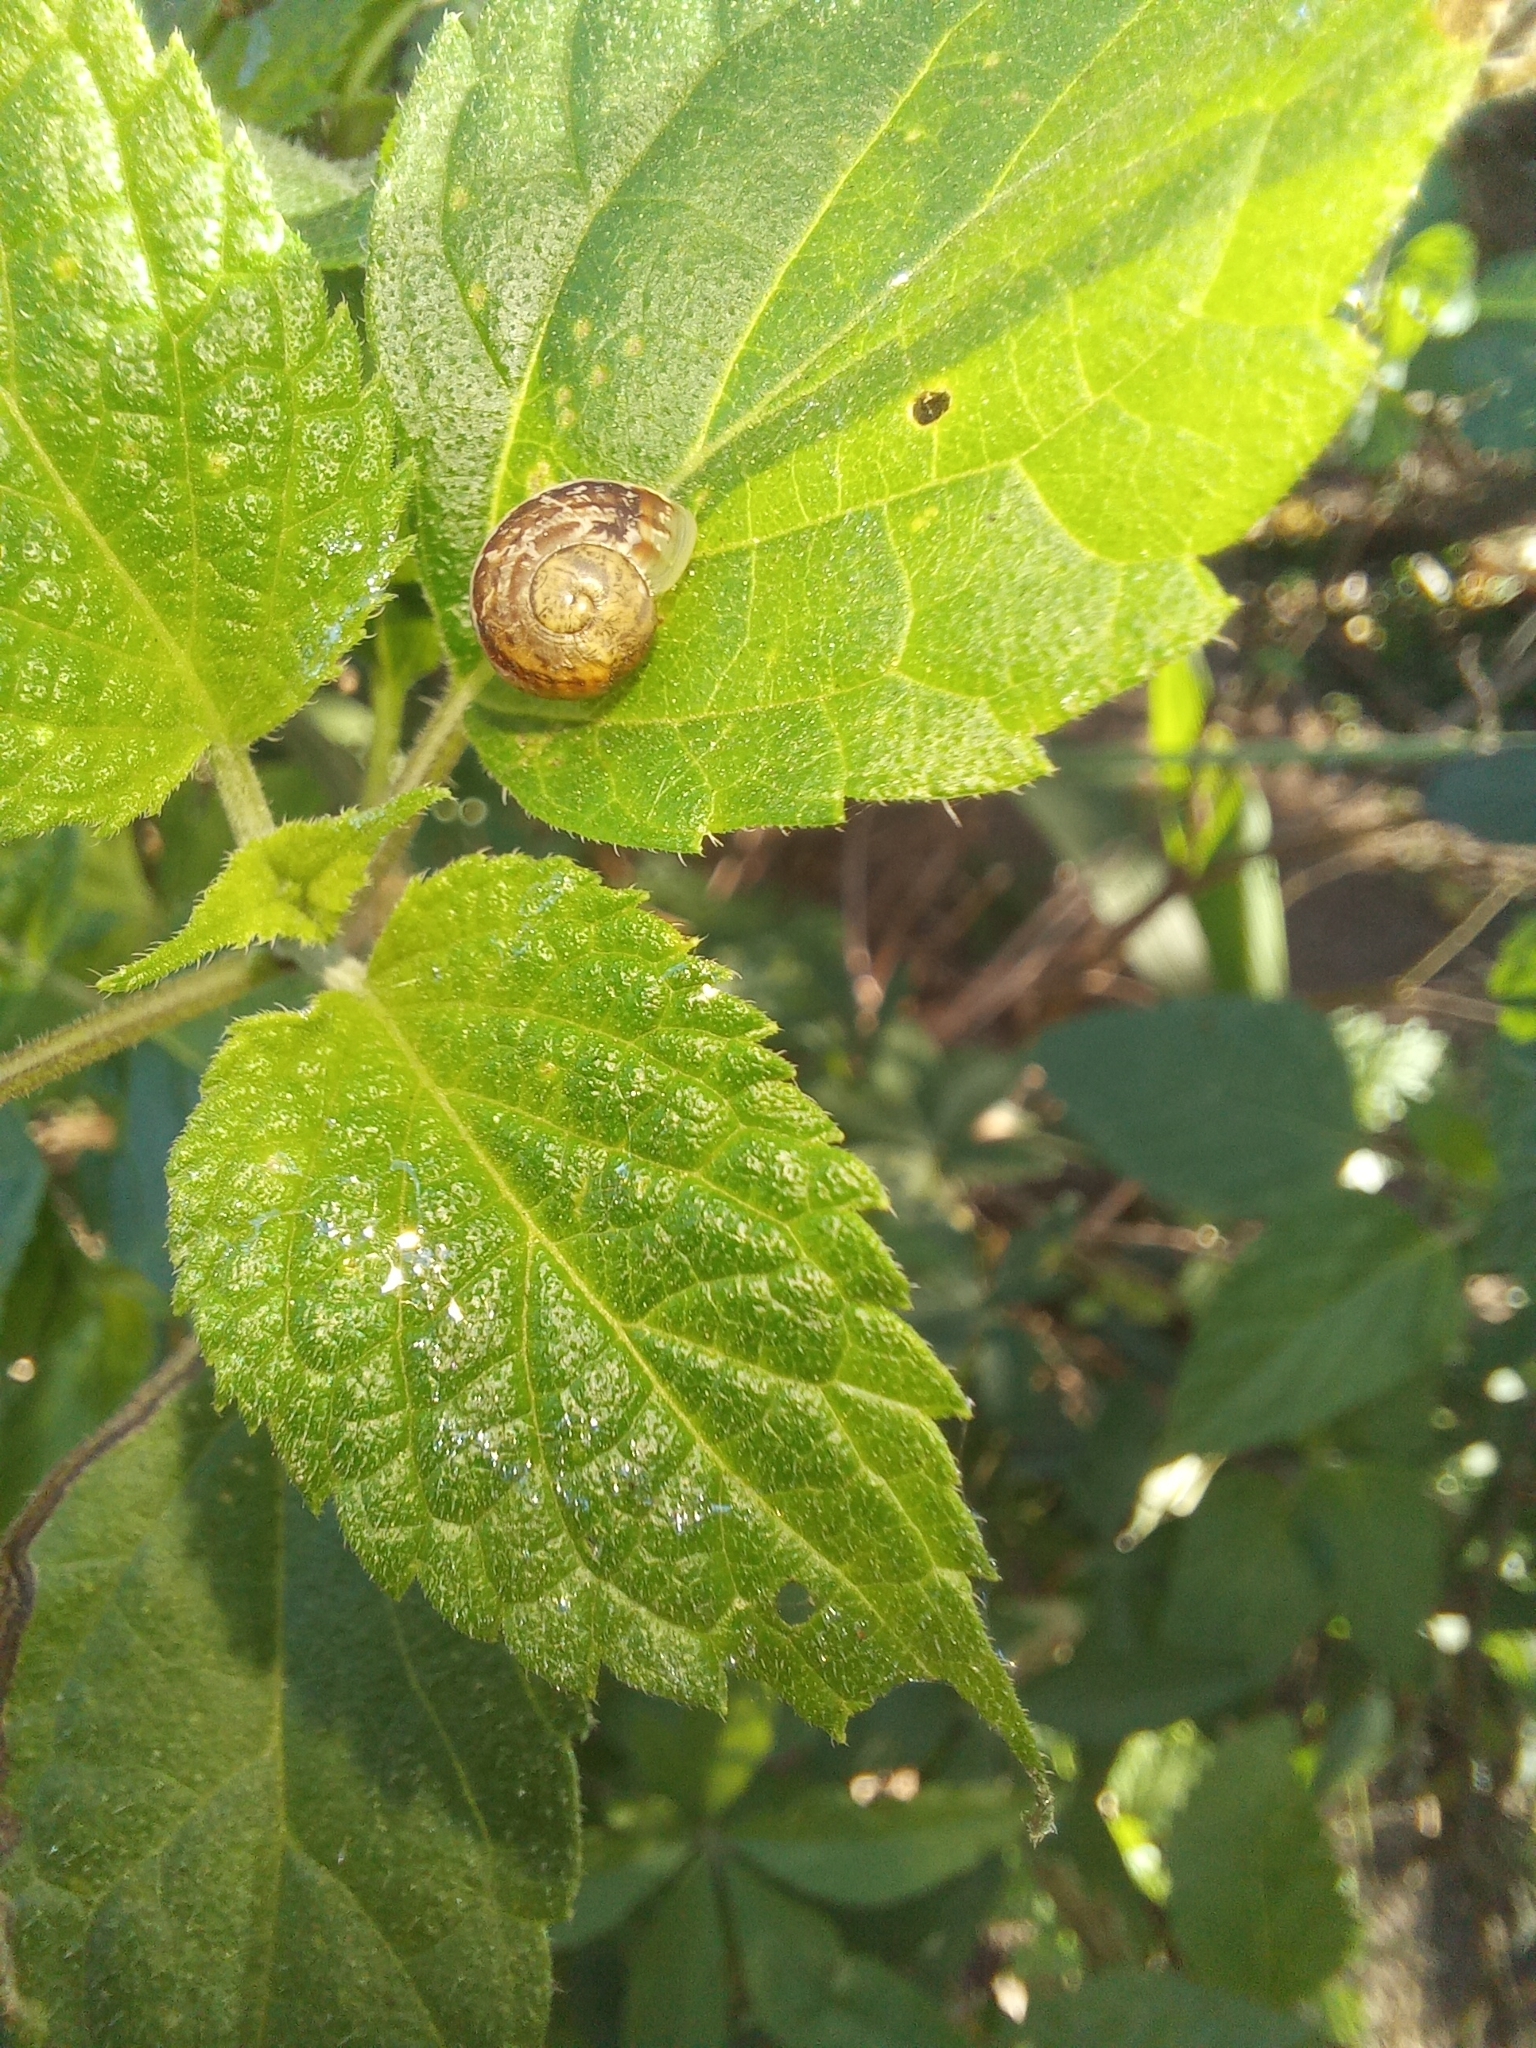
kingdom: Animalia
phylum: Mollusca
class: Gastropoda
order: Stylommatophora
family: Helicidae
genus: Cornu
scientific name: Cornu aspersum
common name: Brown garden snail
